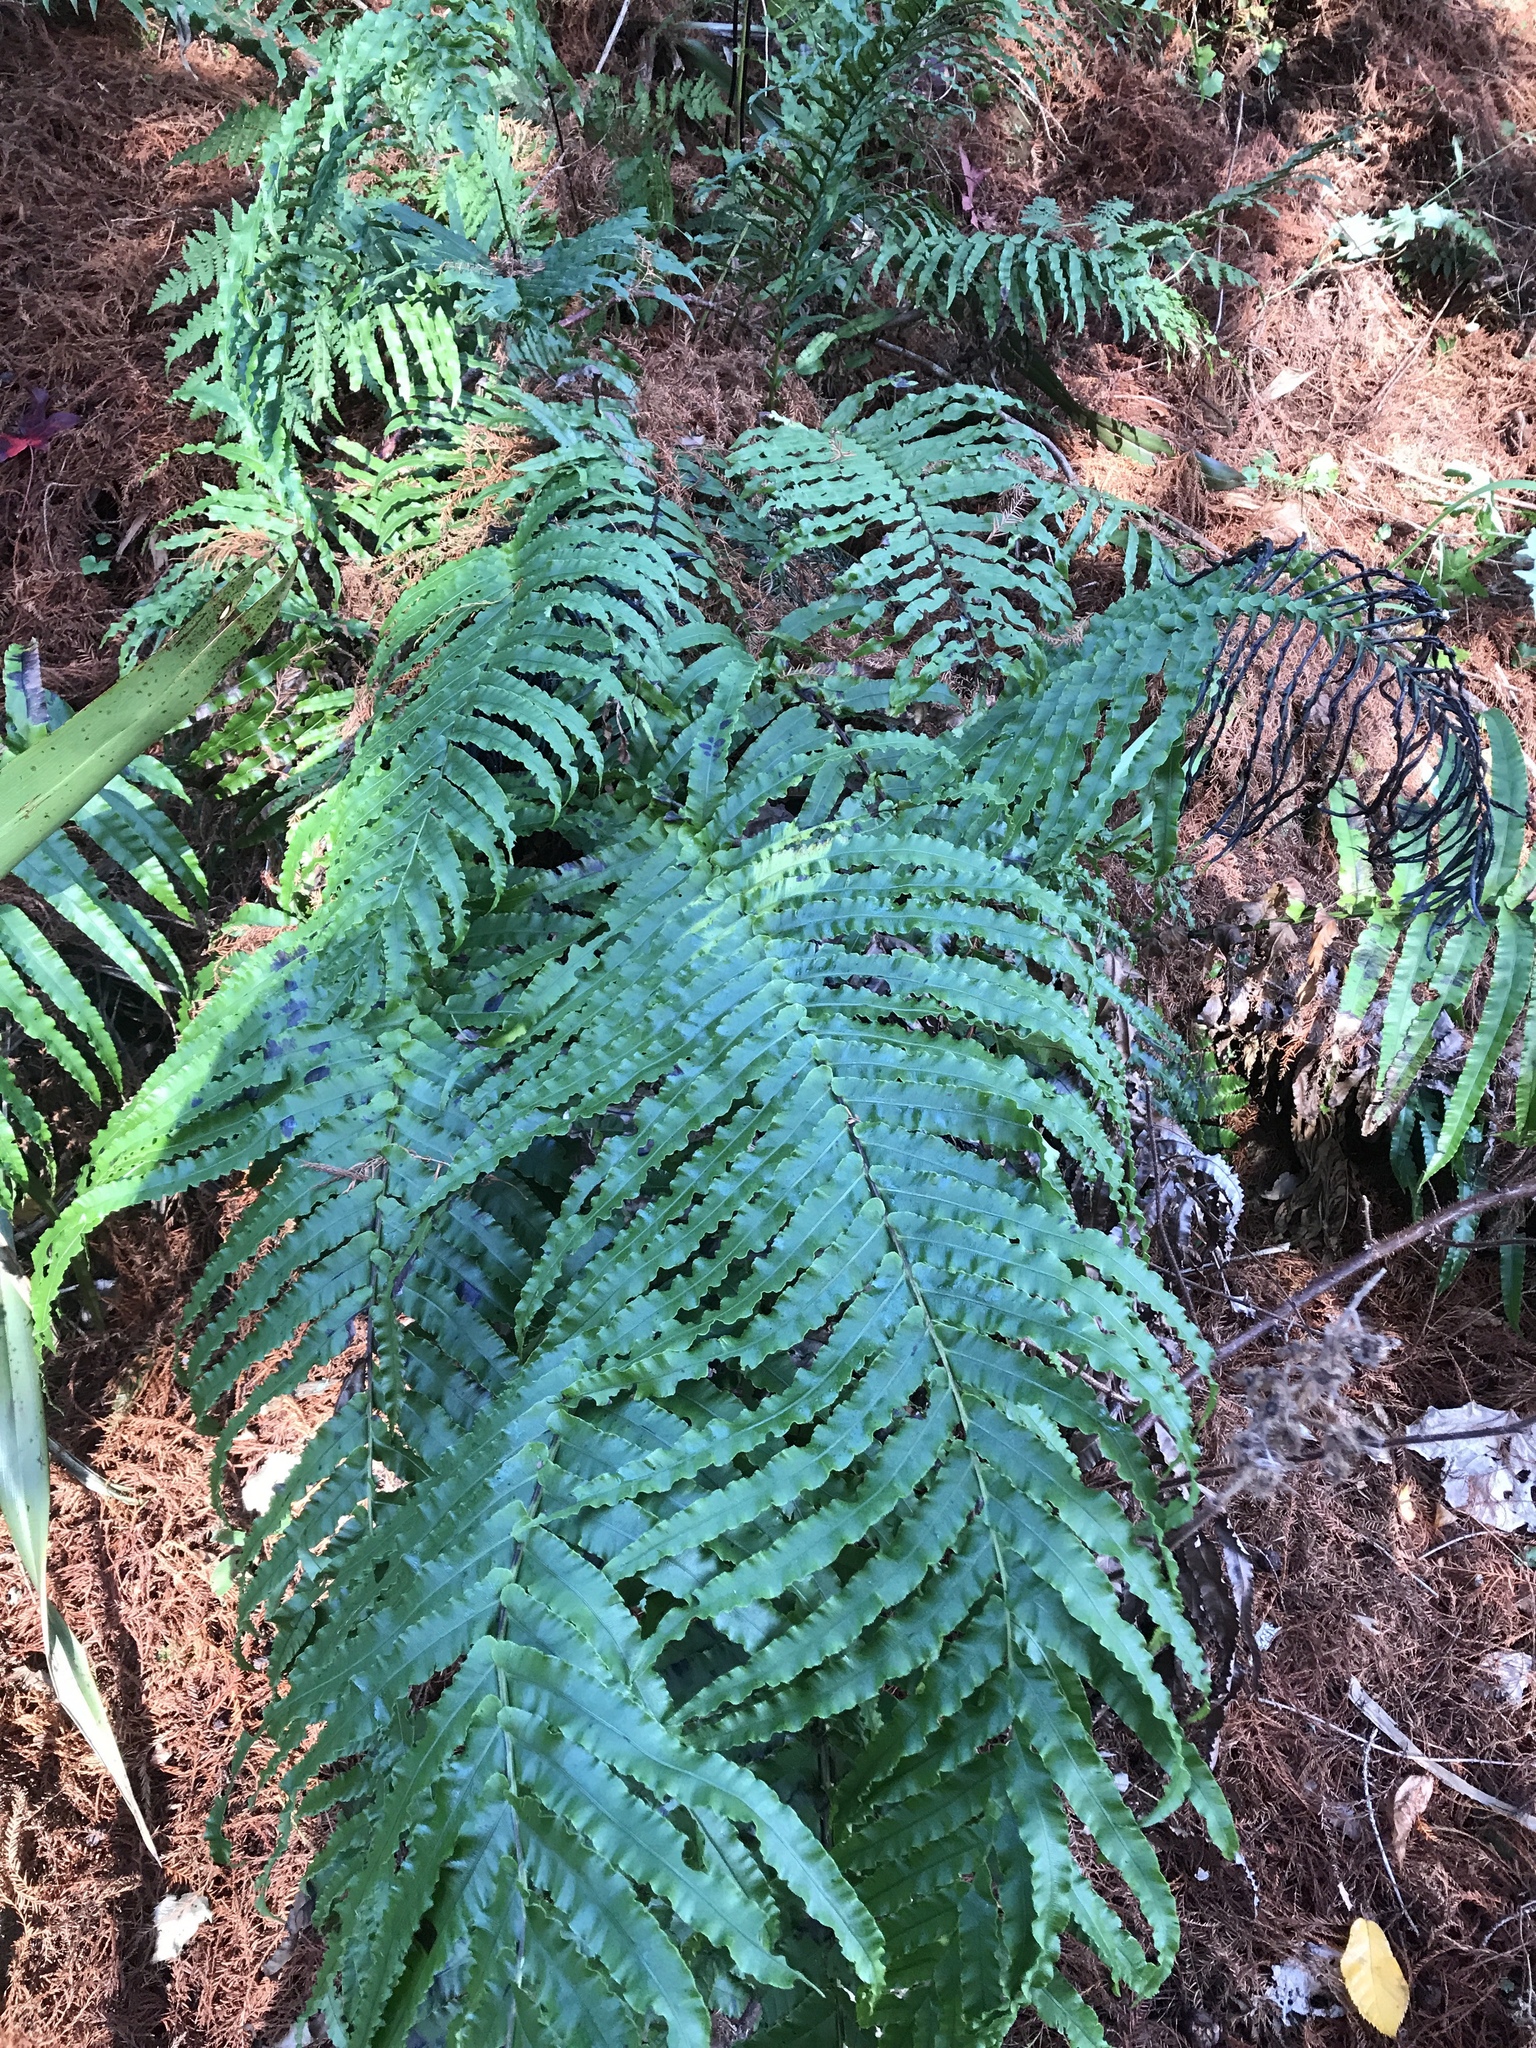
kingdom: Plantae
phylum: Tracheophyta
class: Polypodiopsida
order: Polypodiales
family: Blechnaceae
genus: Parablechnum
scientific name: Parablechnum novae-zelandiae
